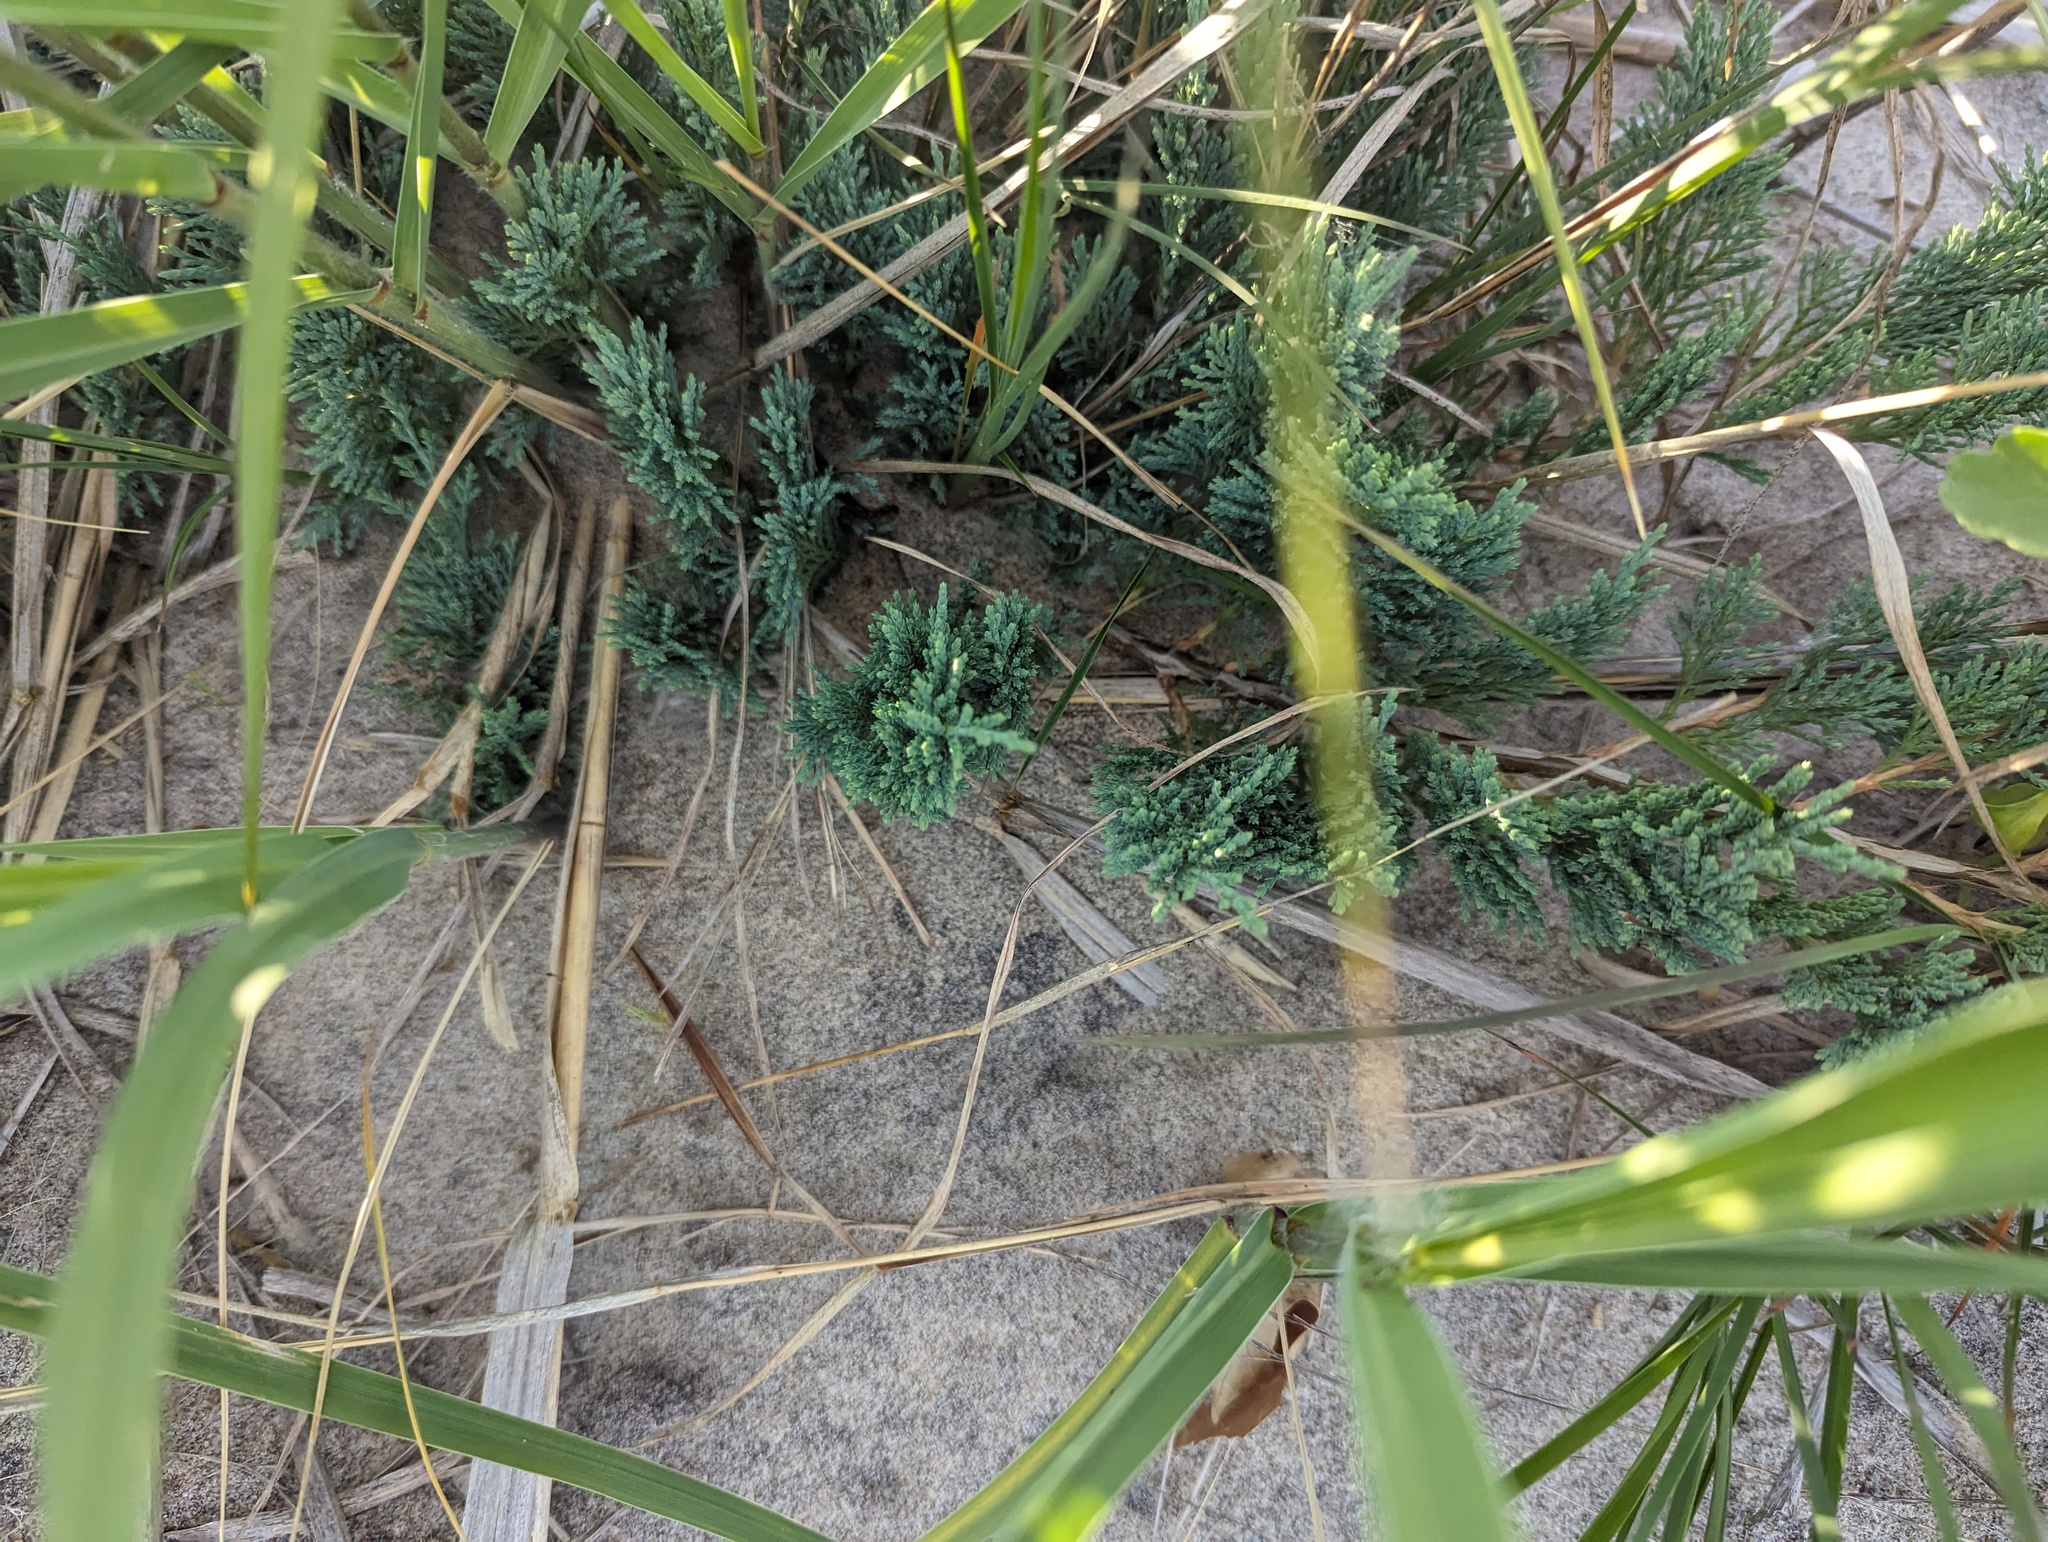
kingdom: Plantae
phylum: Tracheophyta
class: Pinopsida
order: Pinales
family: Cupressaceae
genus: Juniperus
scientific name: Juniperus horizontalis
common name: Creeping juniper
